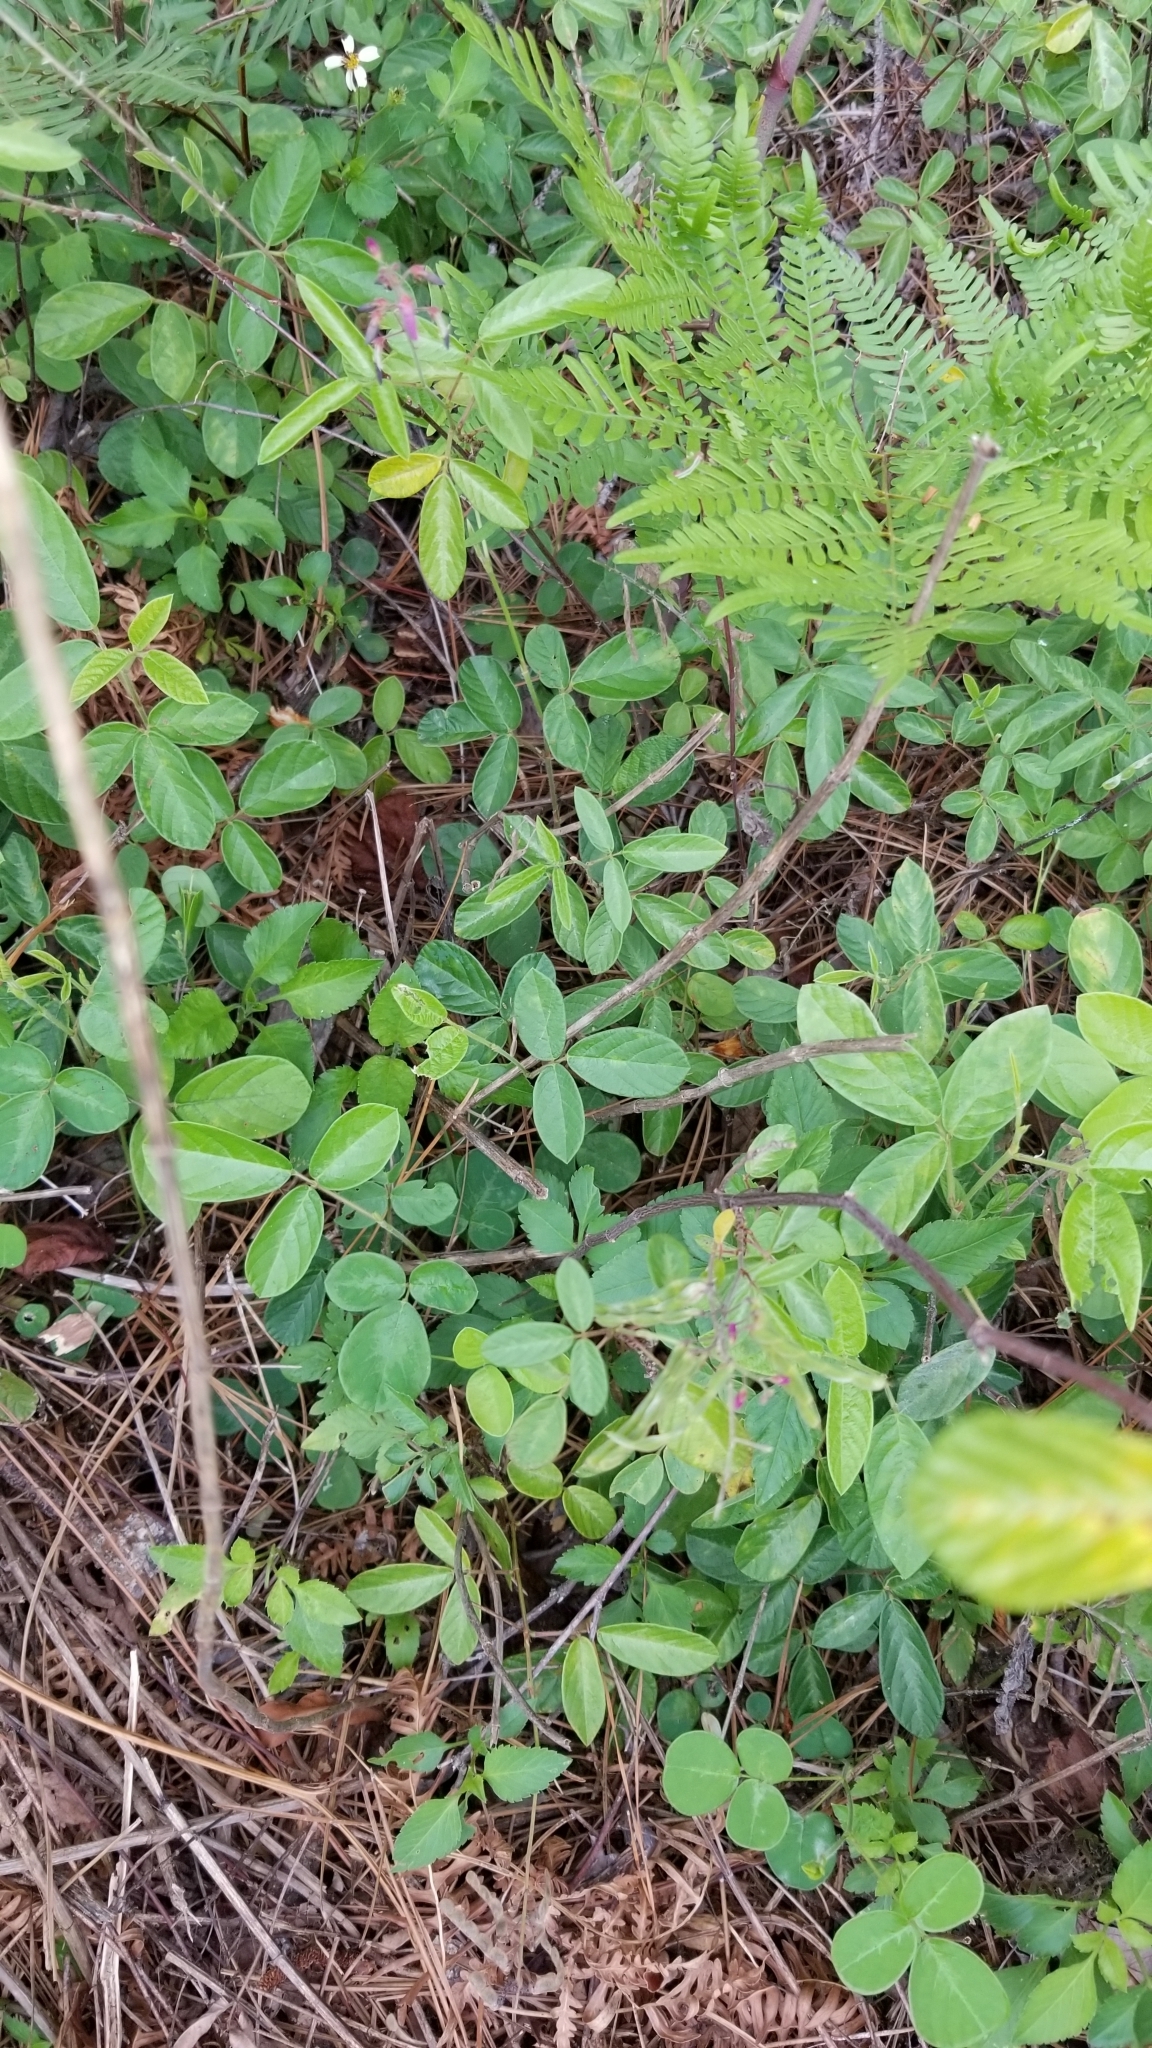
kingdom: Plantae
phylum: Tracheophyta
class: Magnoliopsida
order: Fabales
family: Fabaceae
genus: Desmodium
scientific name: Desmodium incanum
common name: Tickclover
